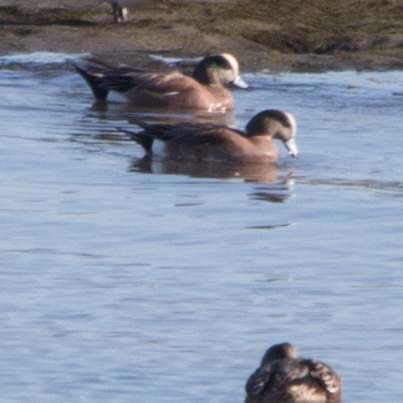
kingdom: Animalia
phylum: Chordata
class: Aves
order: Anseriformes
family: Anatidae
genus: Mareca
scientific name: Mareca americana
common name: American wigeon
